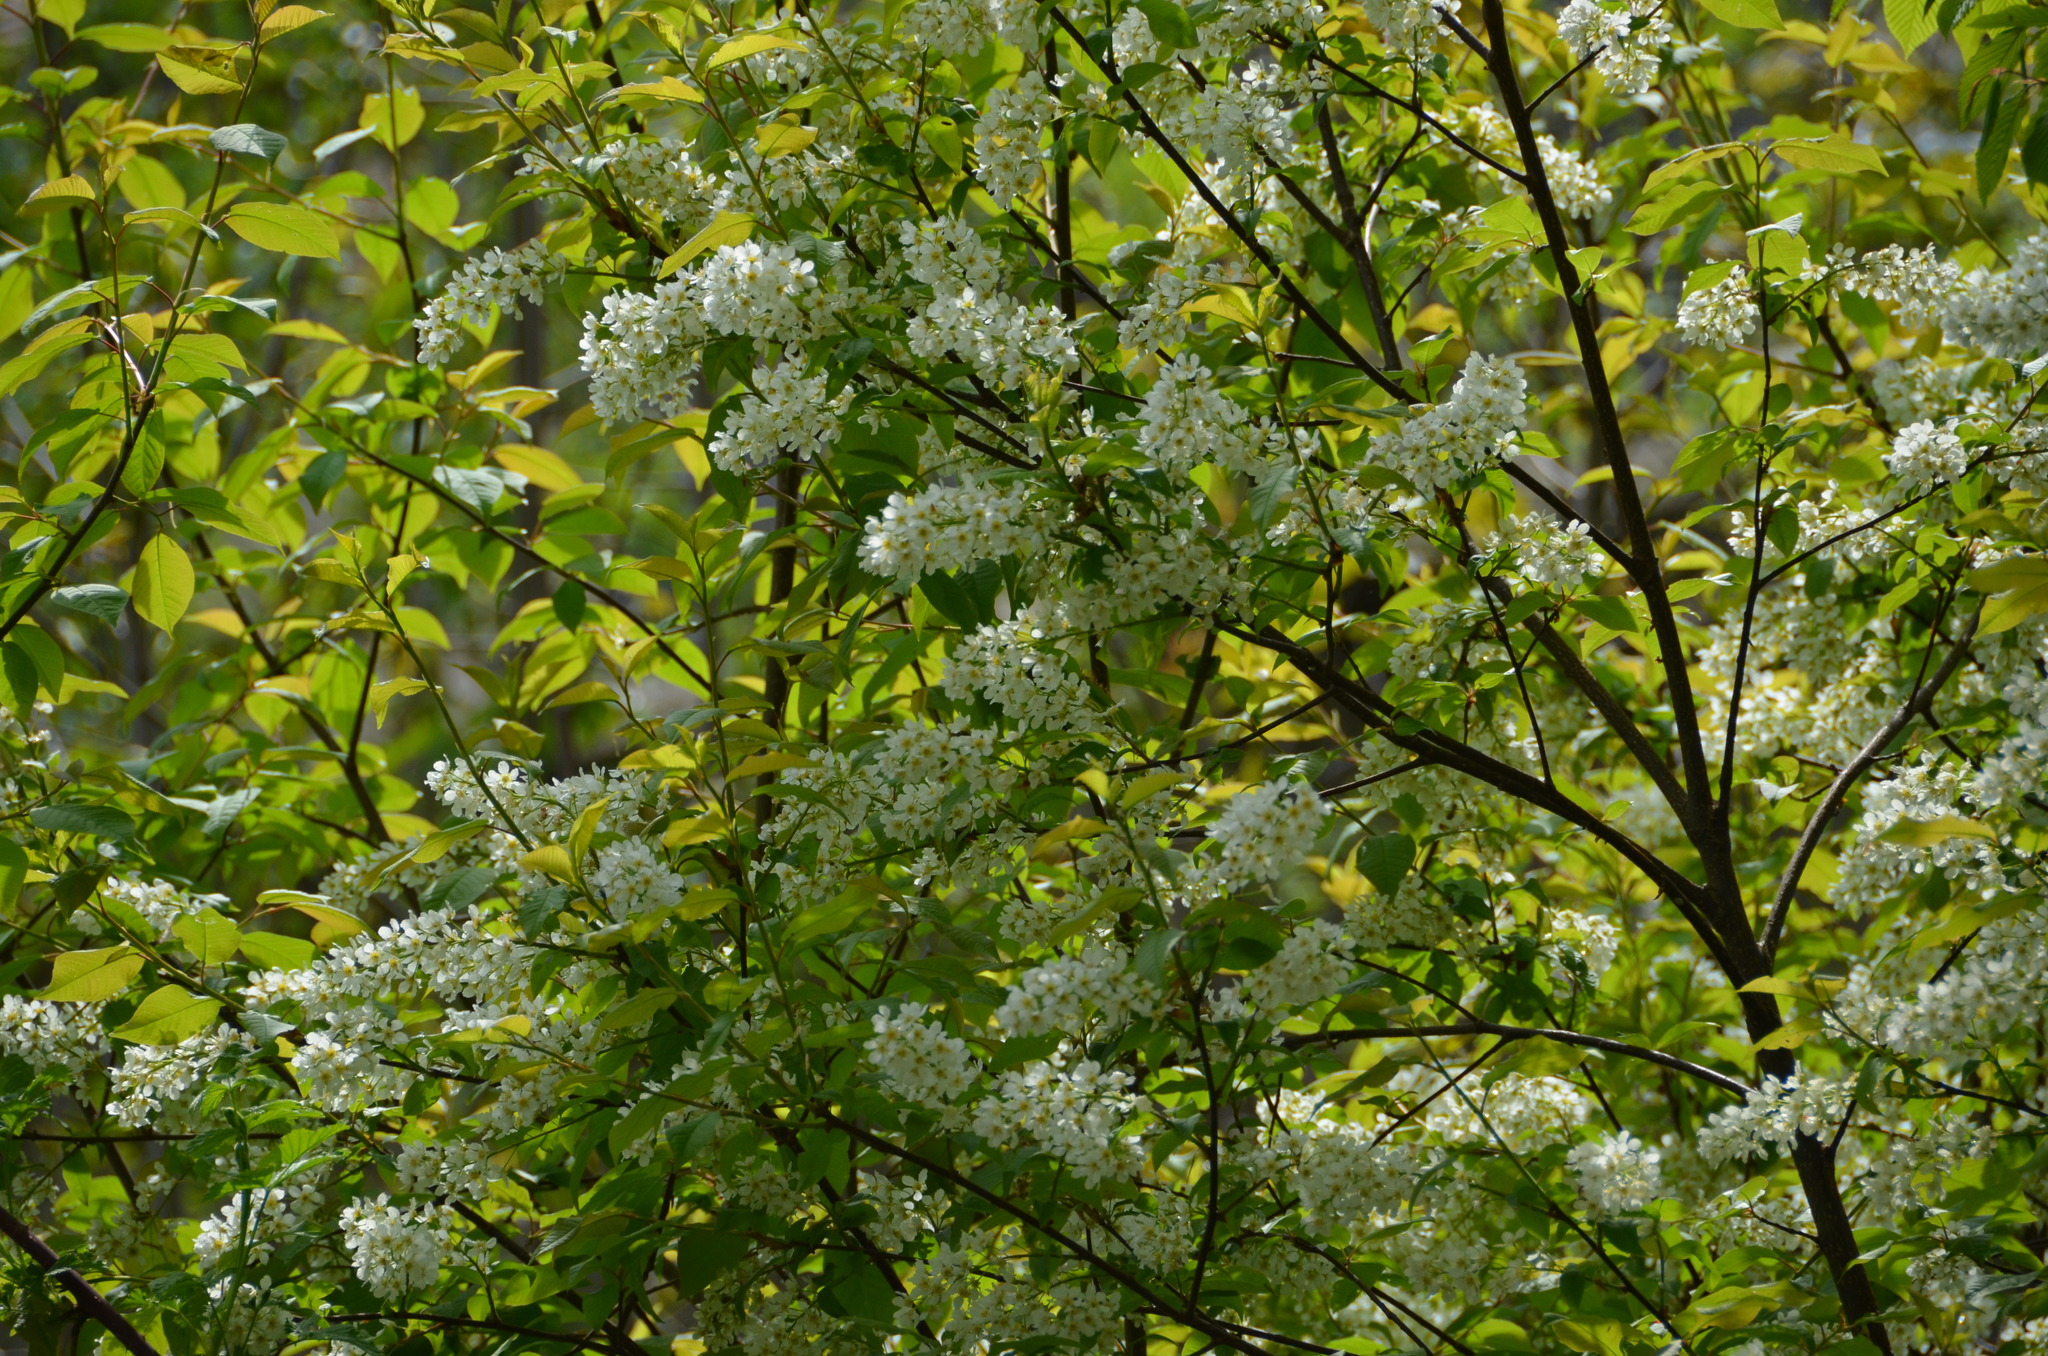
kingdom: Plantae
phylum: Tracheophyta
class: Magnoliopsida
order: Rosales
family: Rosaceae
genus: Prunus
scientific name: Prunus padus
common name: Bird cherry
